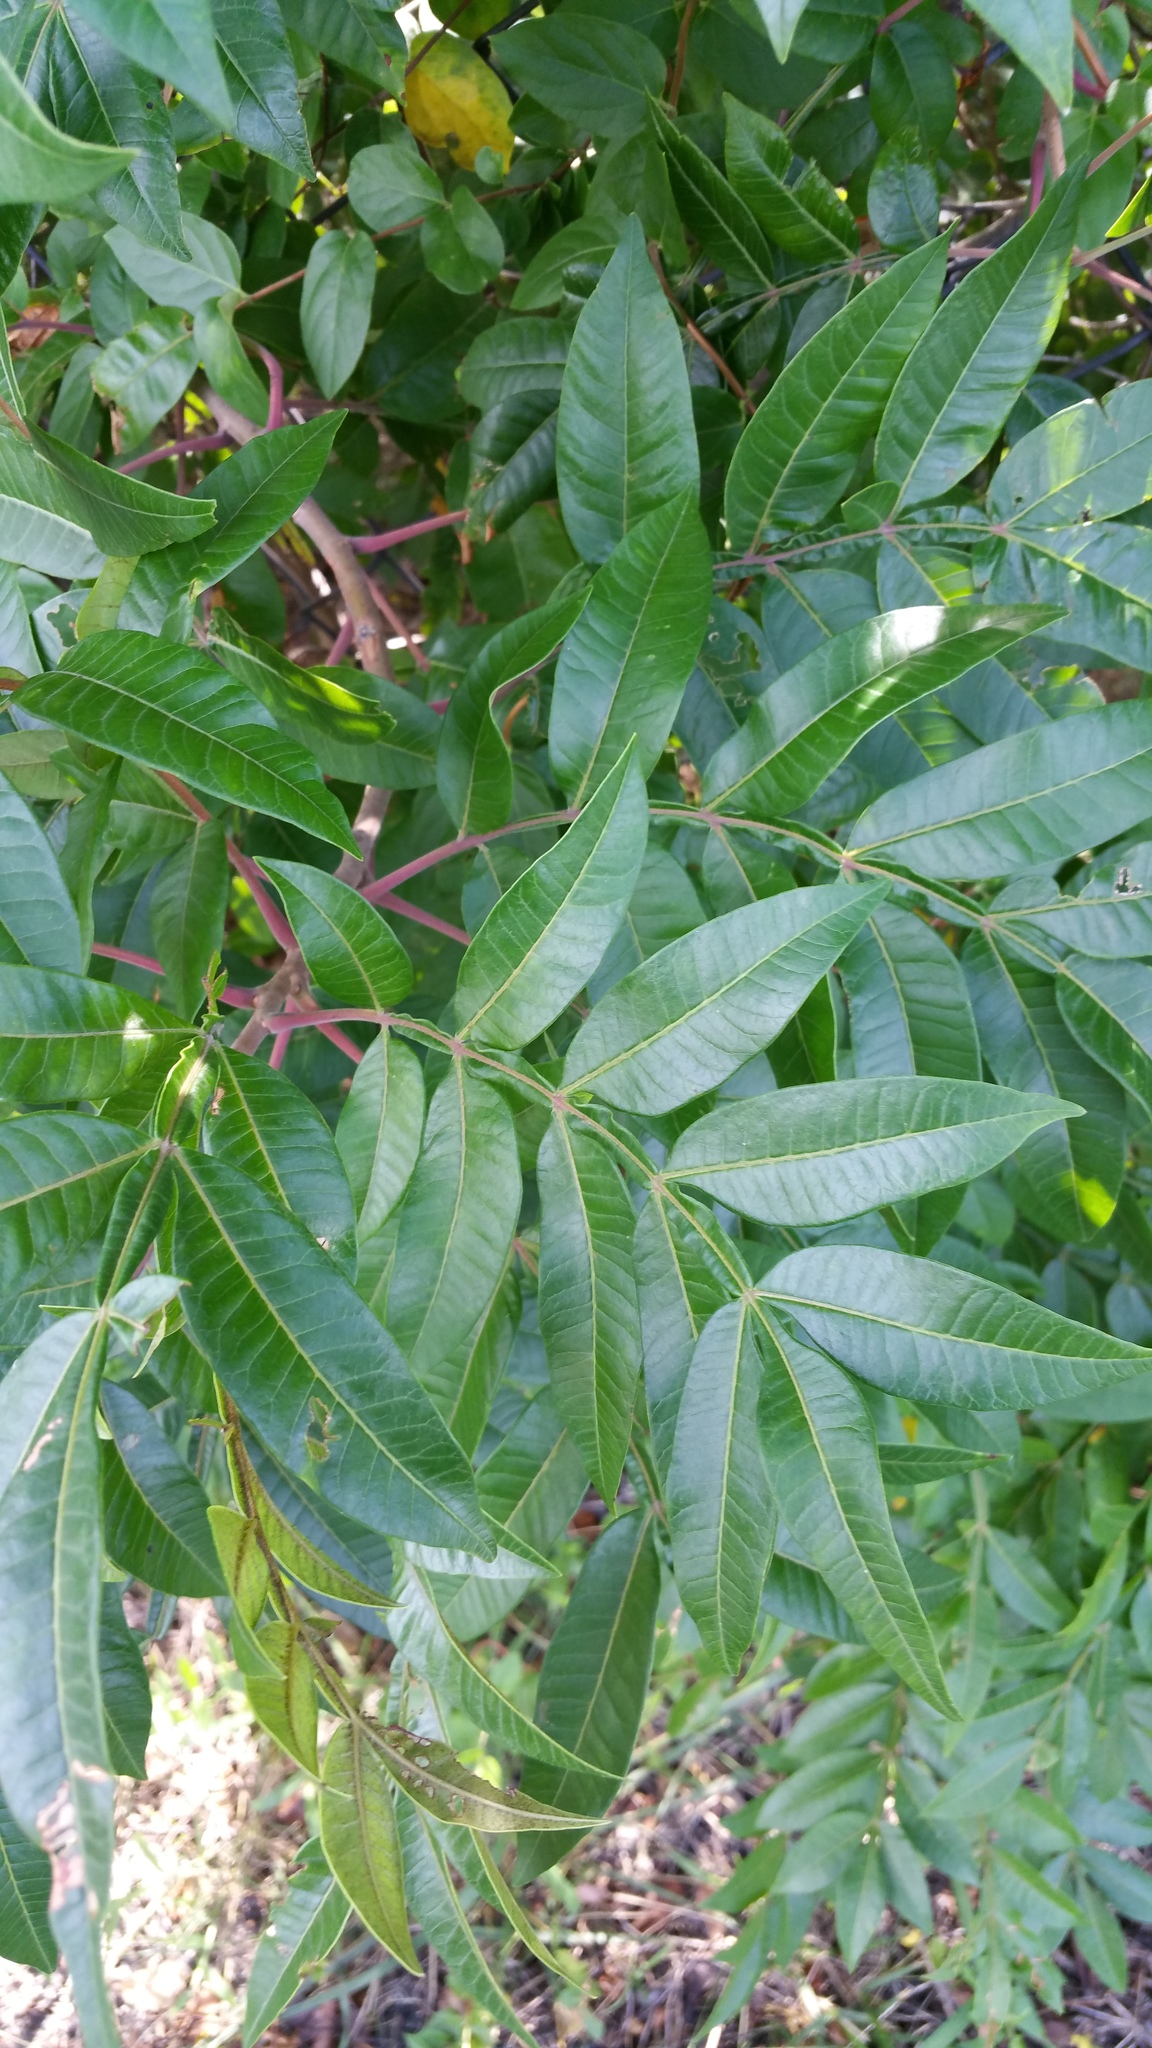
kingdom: Plantae
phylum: Tracheophyta
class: Magnoliopsida
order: Sapindales
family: Anacardiaceae
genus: Rhus
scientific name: Rhus copallina
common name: Shining sumac
